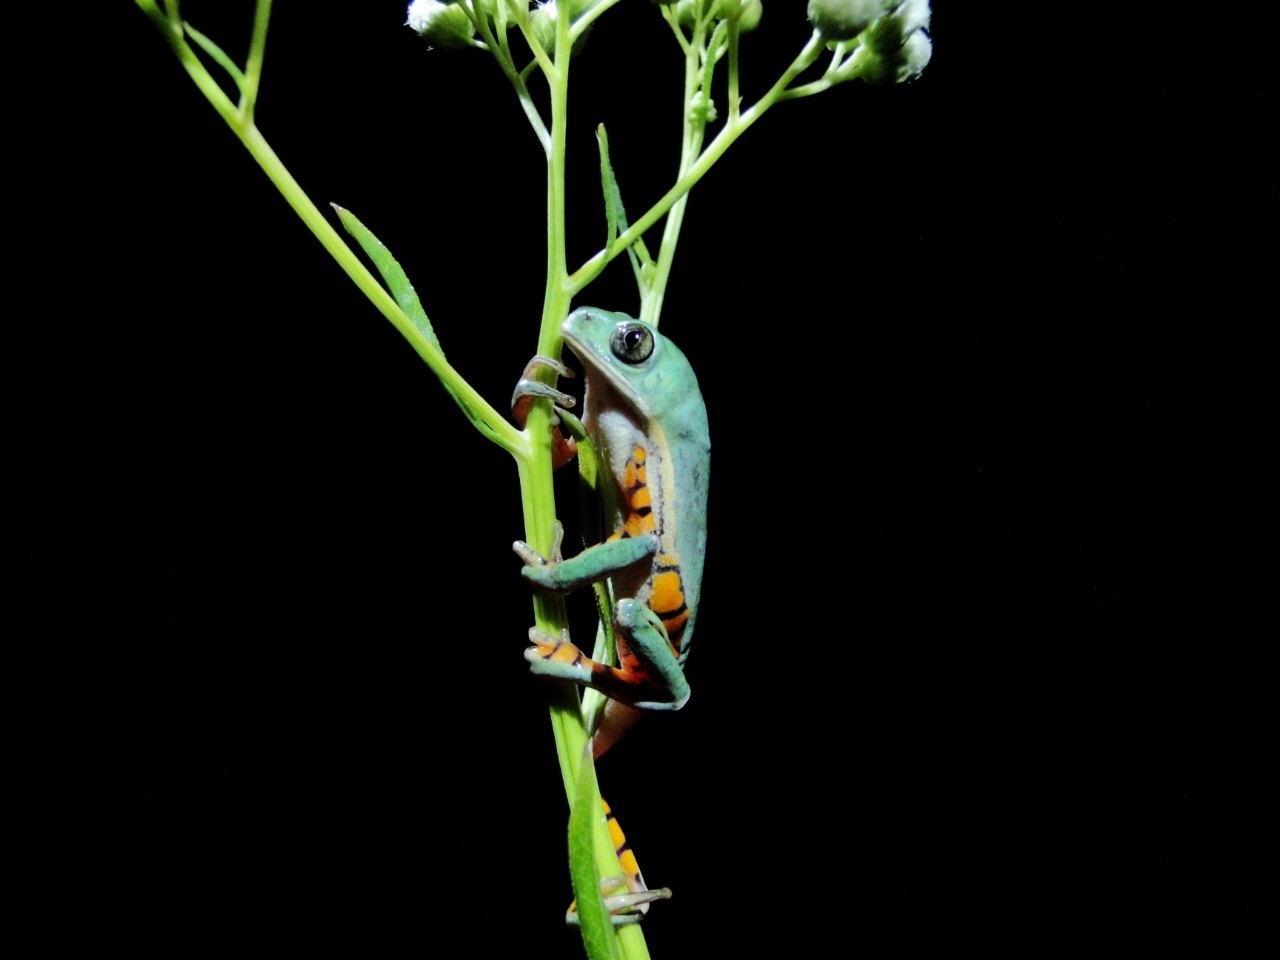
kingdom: Animalia
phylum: Chordata
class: Amphibia
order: Anura
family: Phyllomedusidae
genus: Pithecopus
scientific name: Pithecopus azureus
